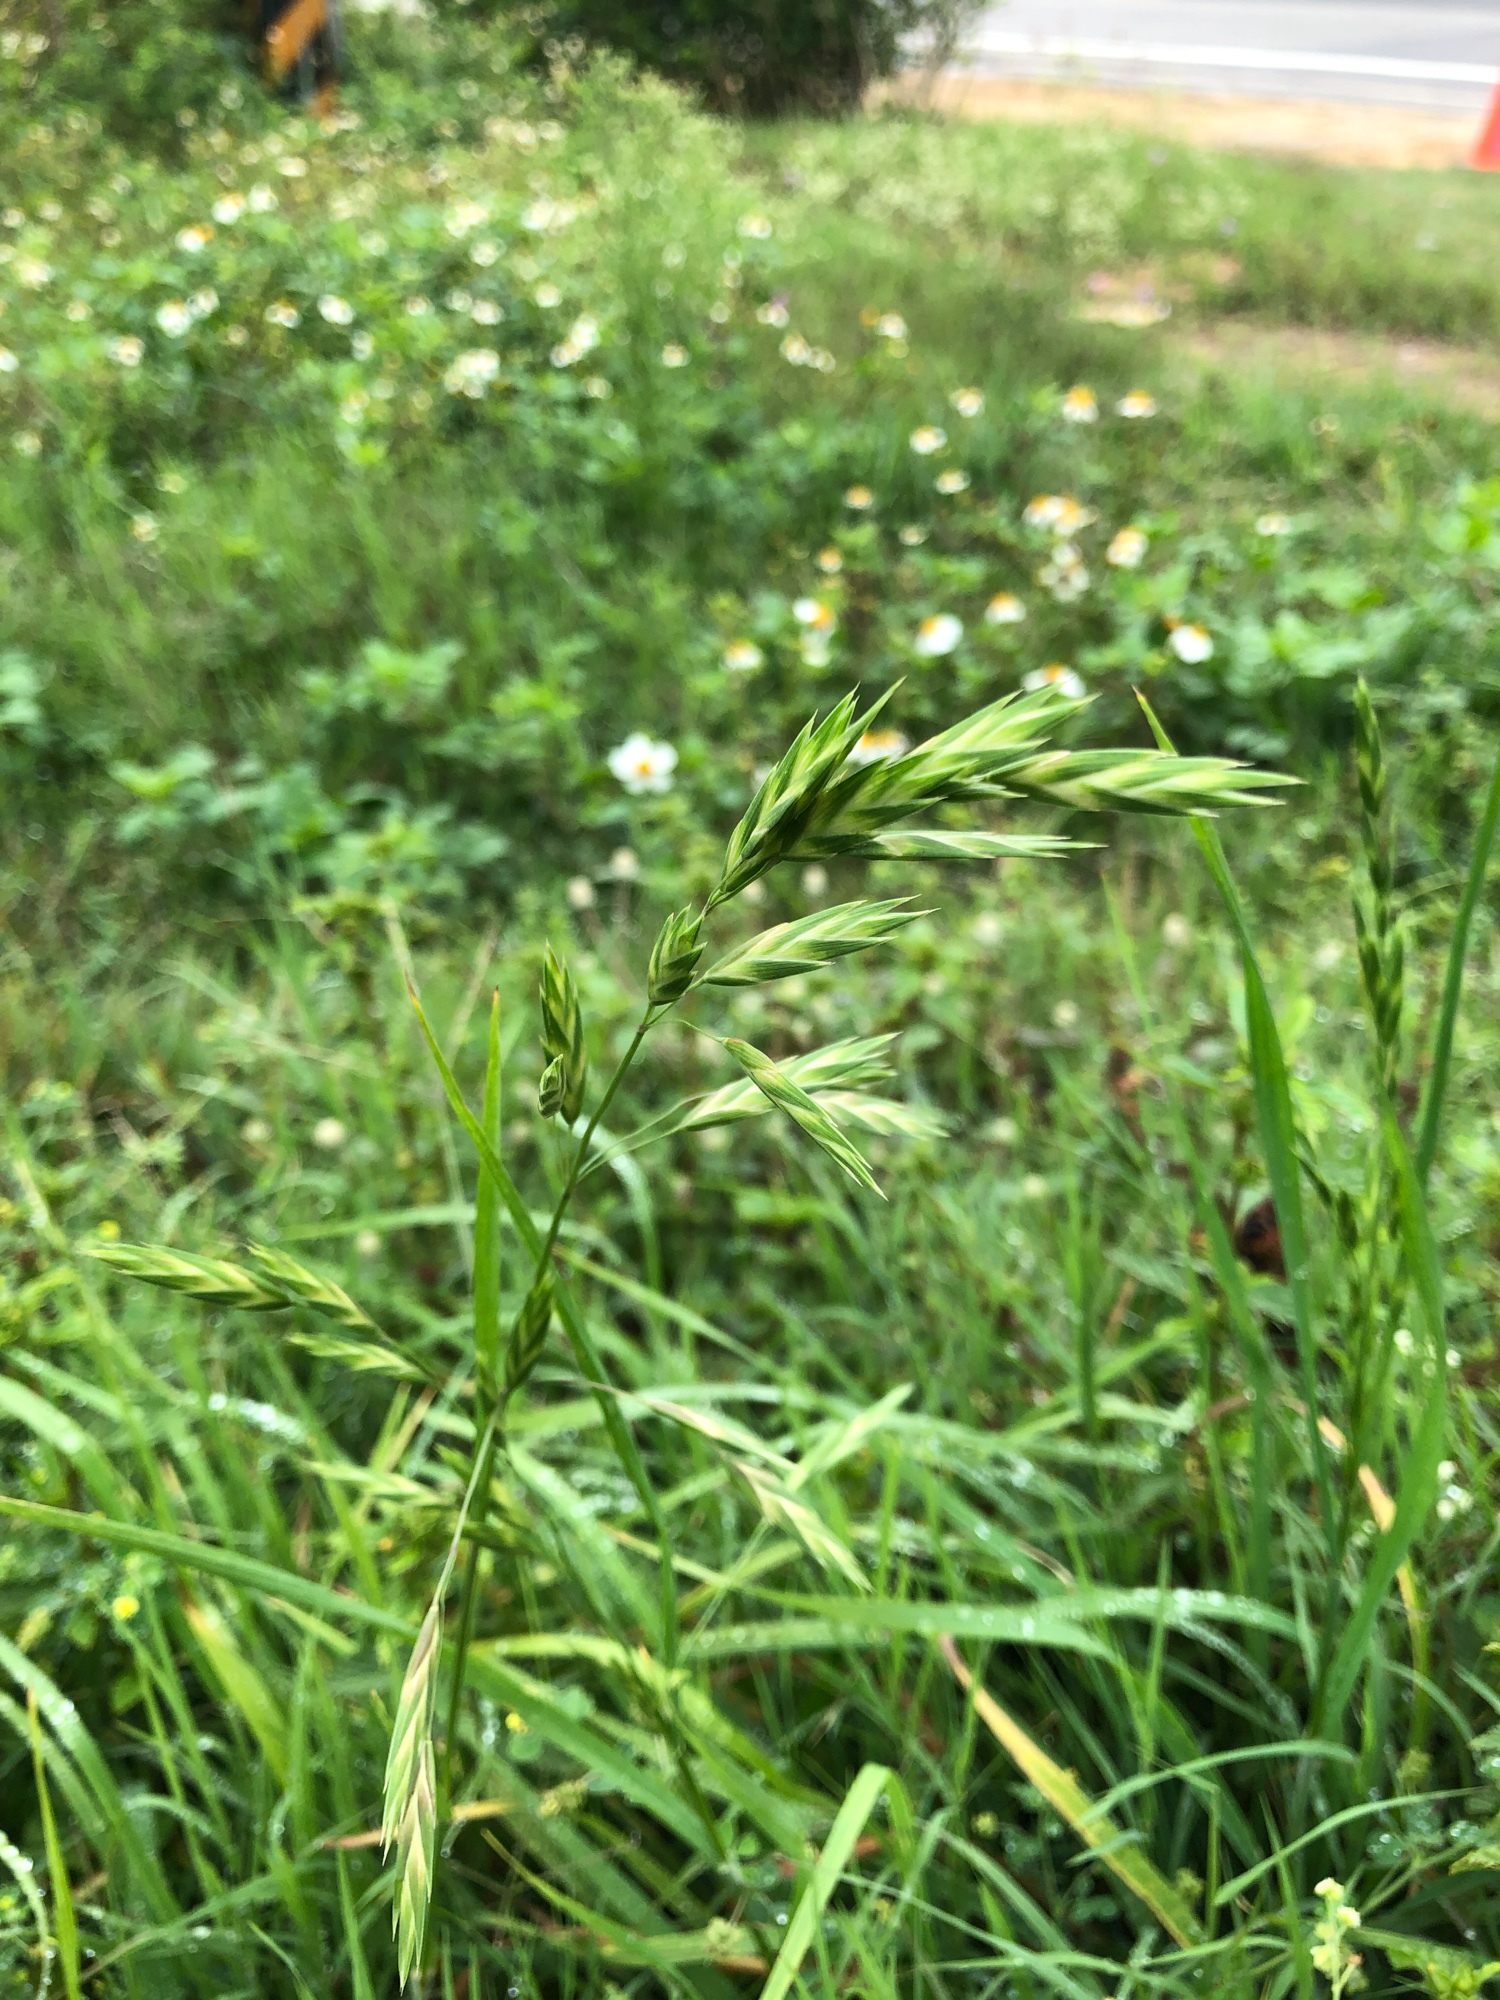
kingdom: Plantae
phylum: Tracheophyta
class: Liliopsida
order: Poales
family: Poaceae
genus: Bromus
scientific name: Bromus catharticus
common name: Rescuegrass
